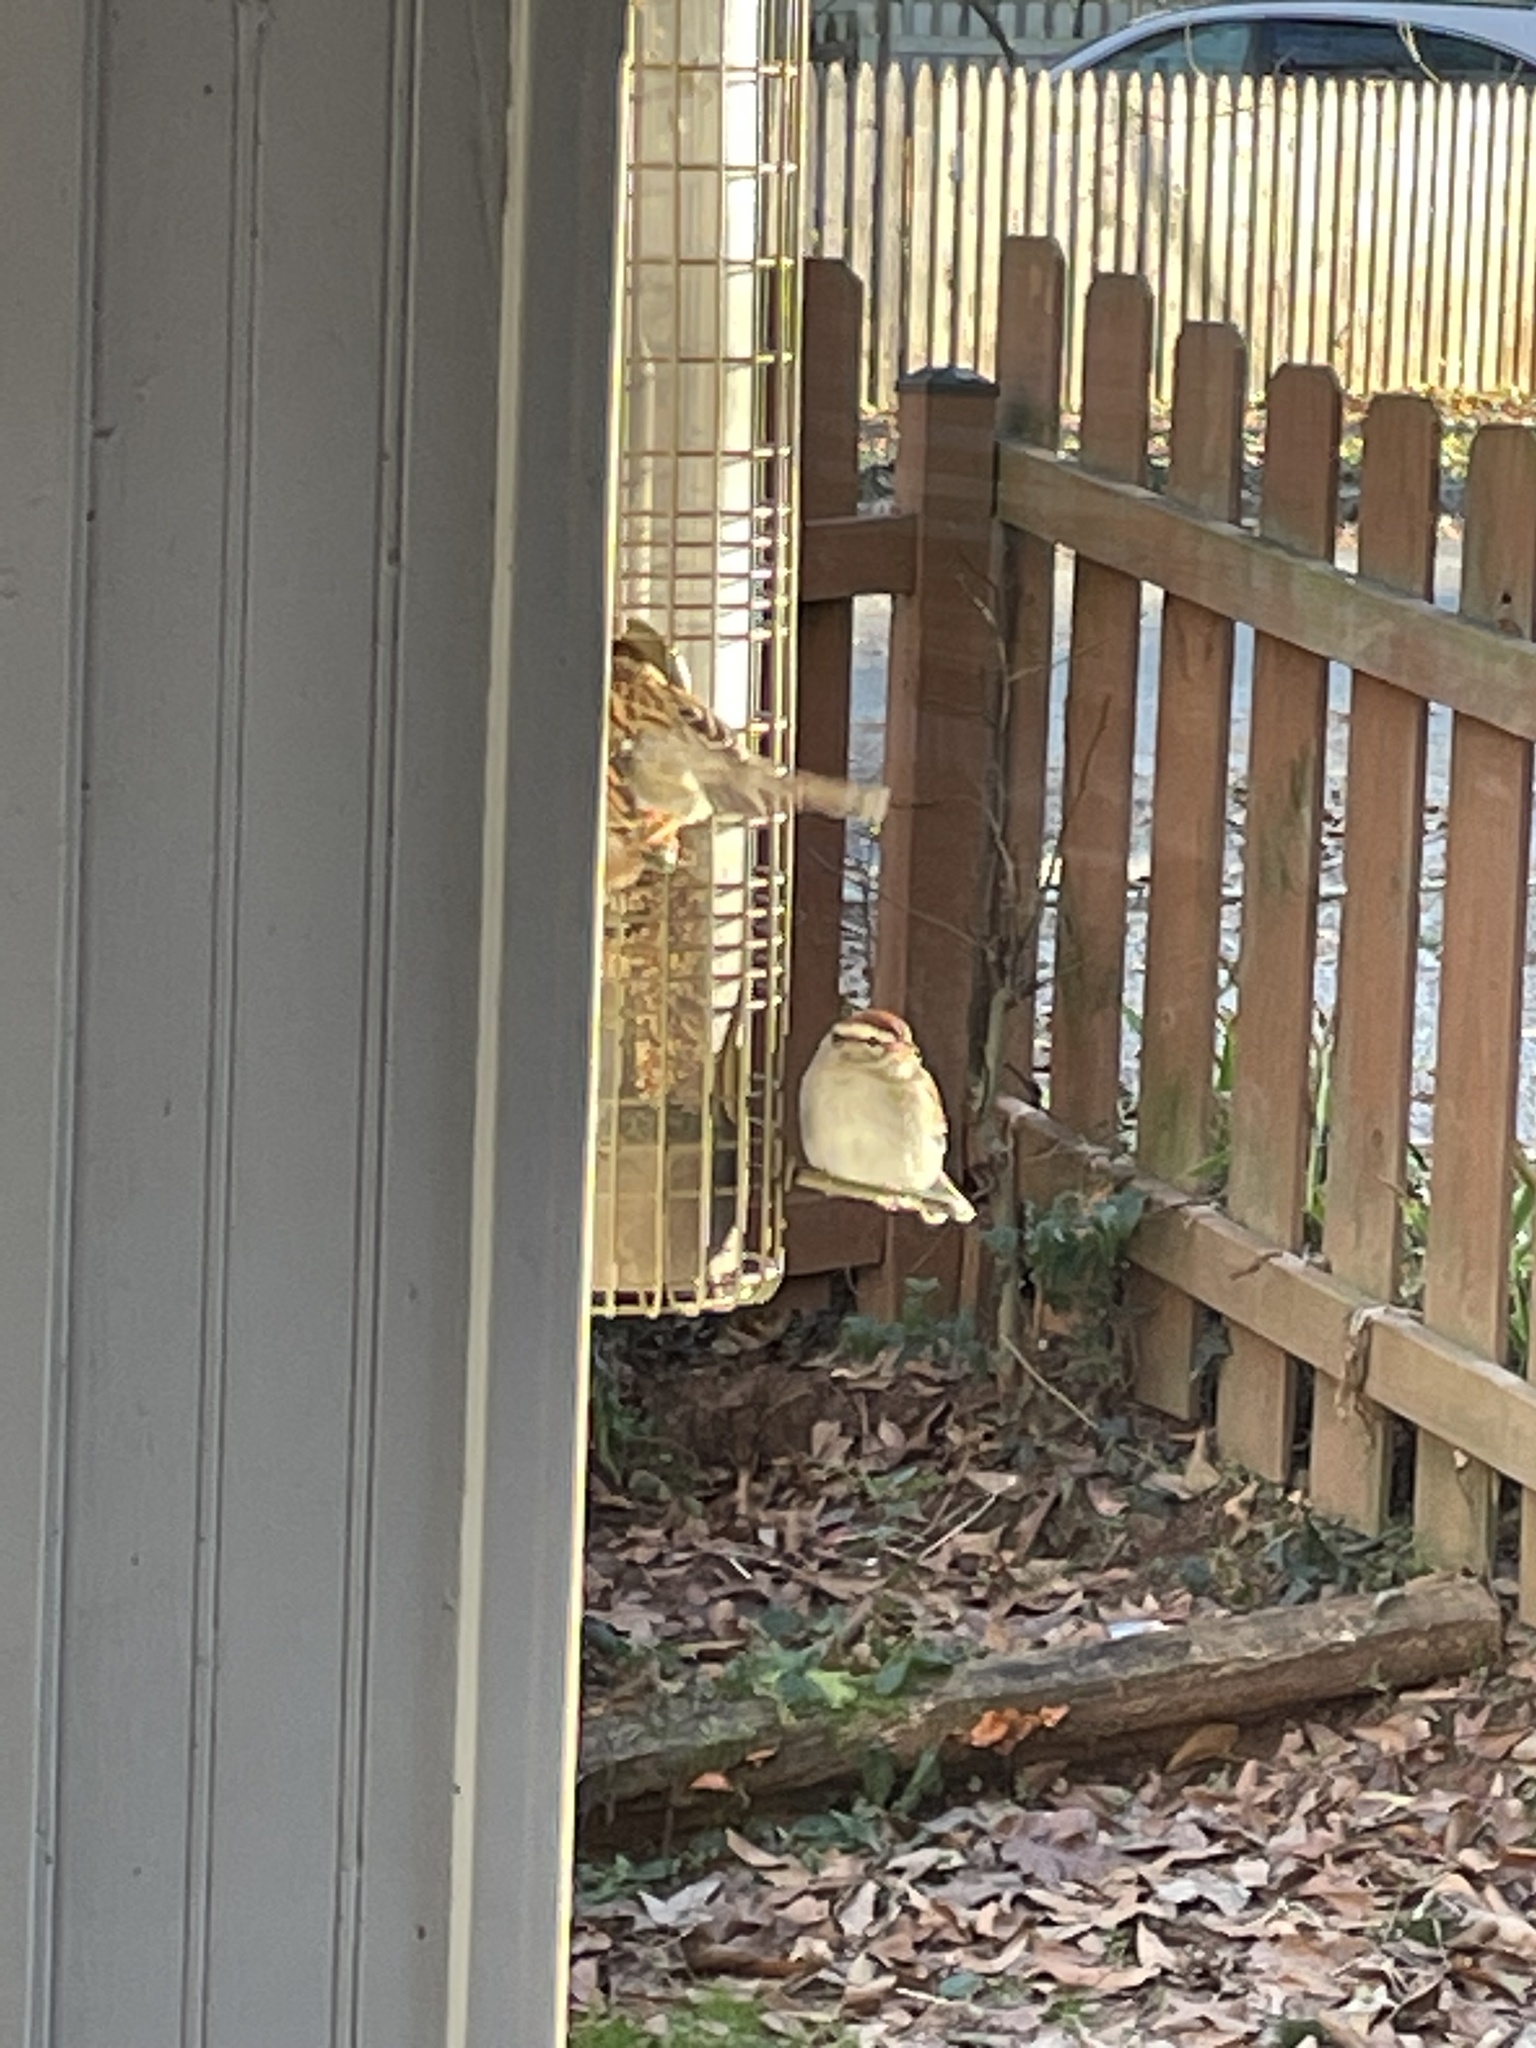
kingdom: Animalia
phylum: Chordata
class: Aves
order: Passeriformes
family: Passerellidae
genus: Spizella
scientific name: Spizella passerina
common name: Chipping sparrow
